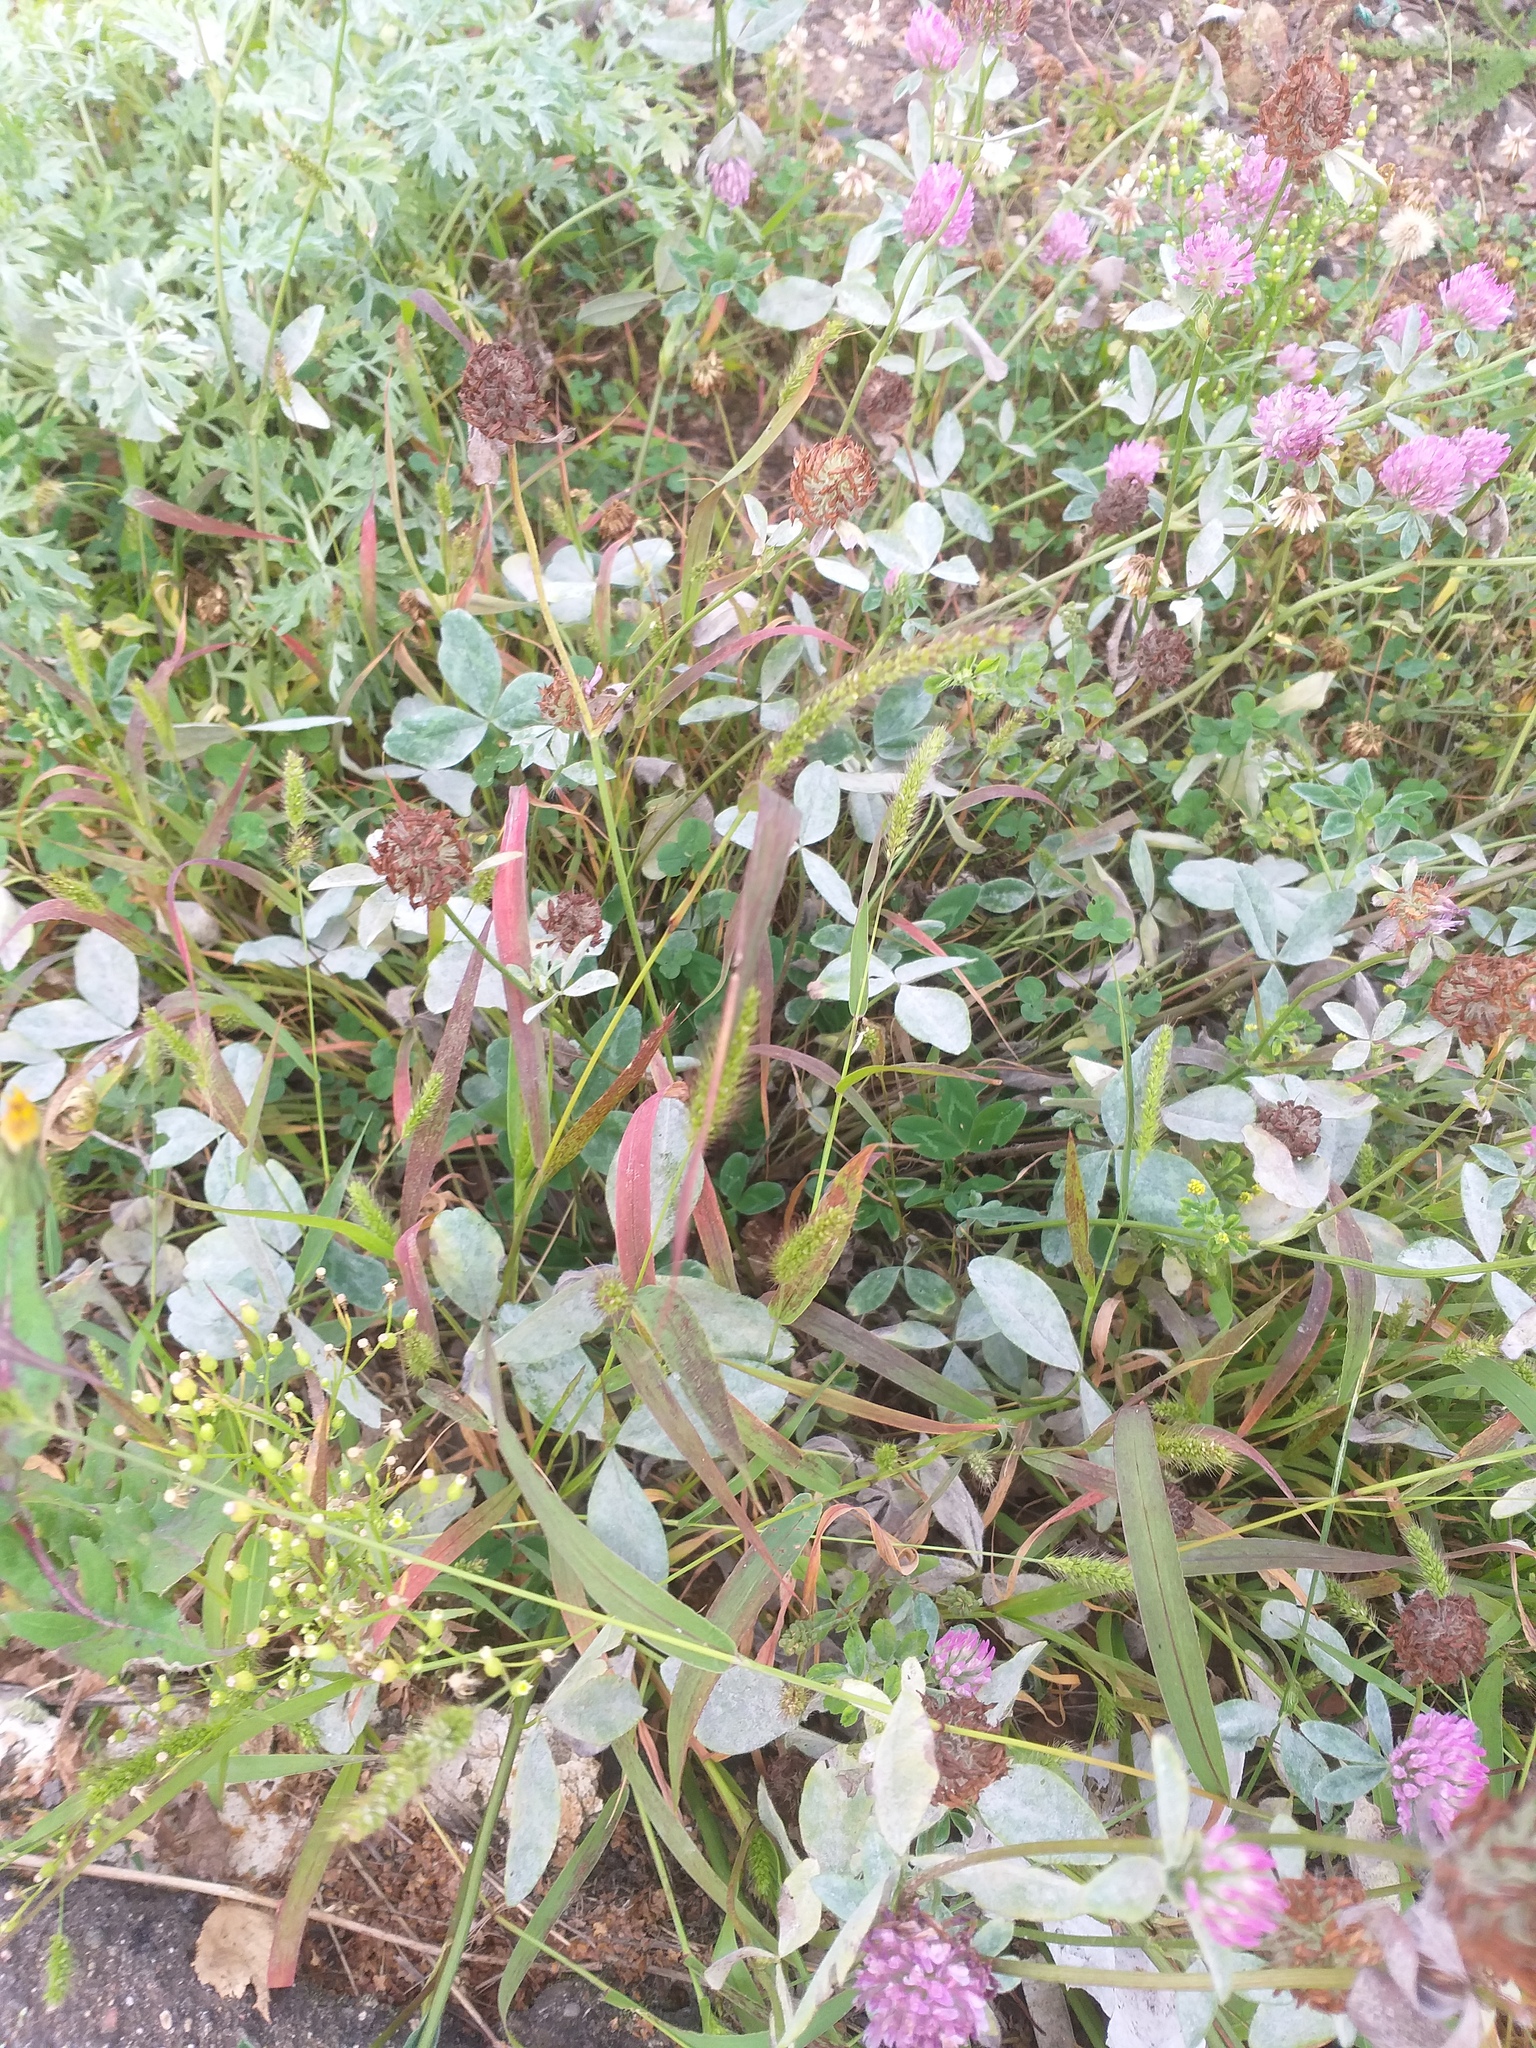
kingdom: Plantae
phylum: Tracheophyta
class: Liliopsida
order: Poales
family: Poaceae
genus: Setaria
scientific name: Setaria viridis
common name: Green bristlegrass
